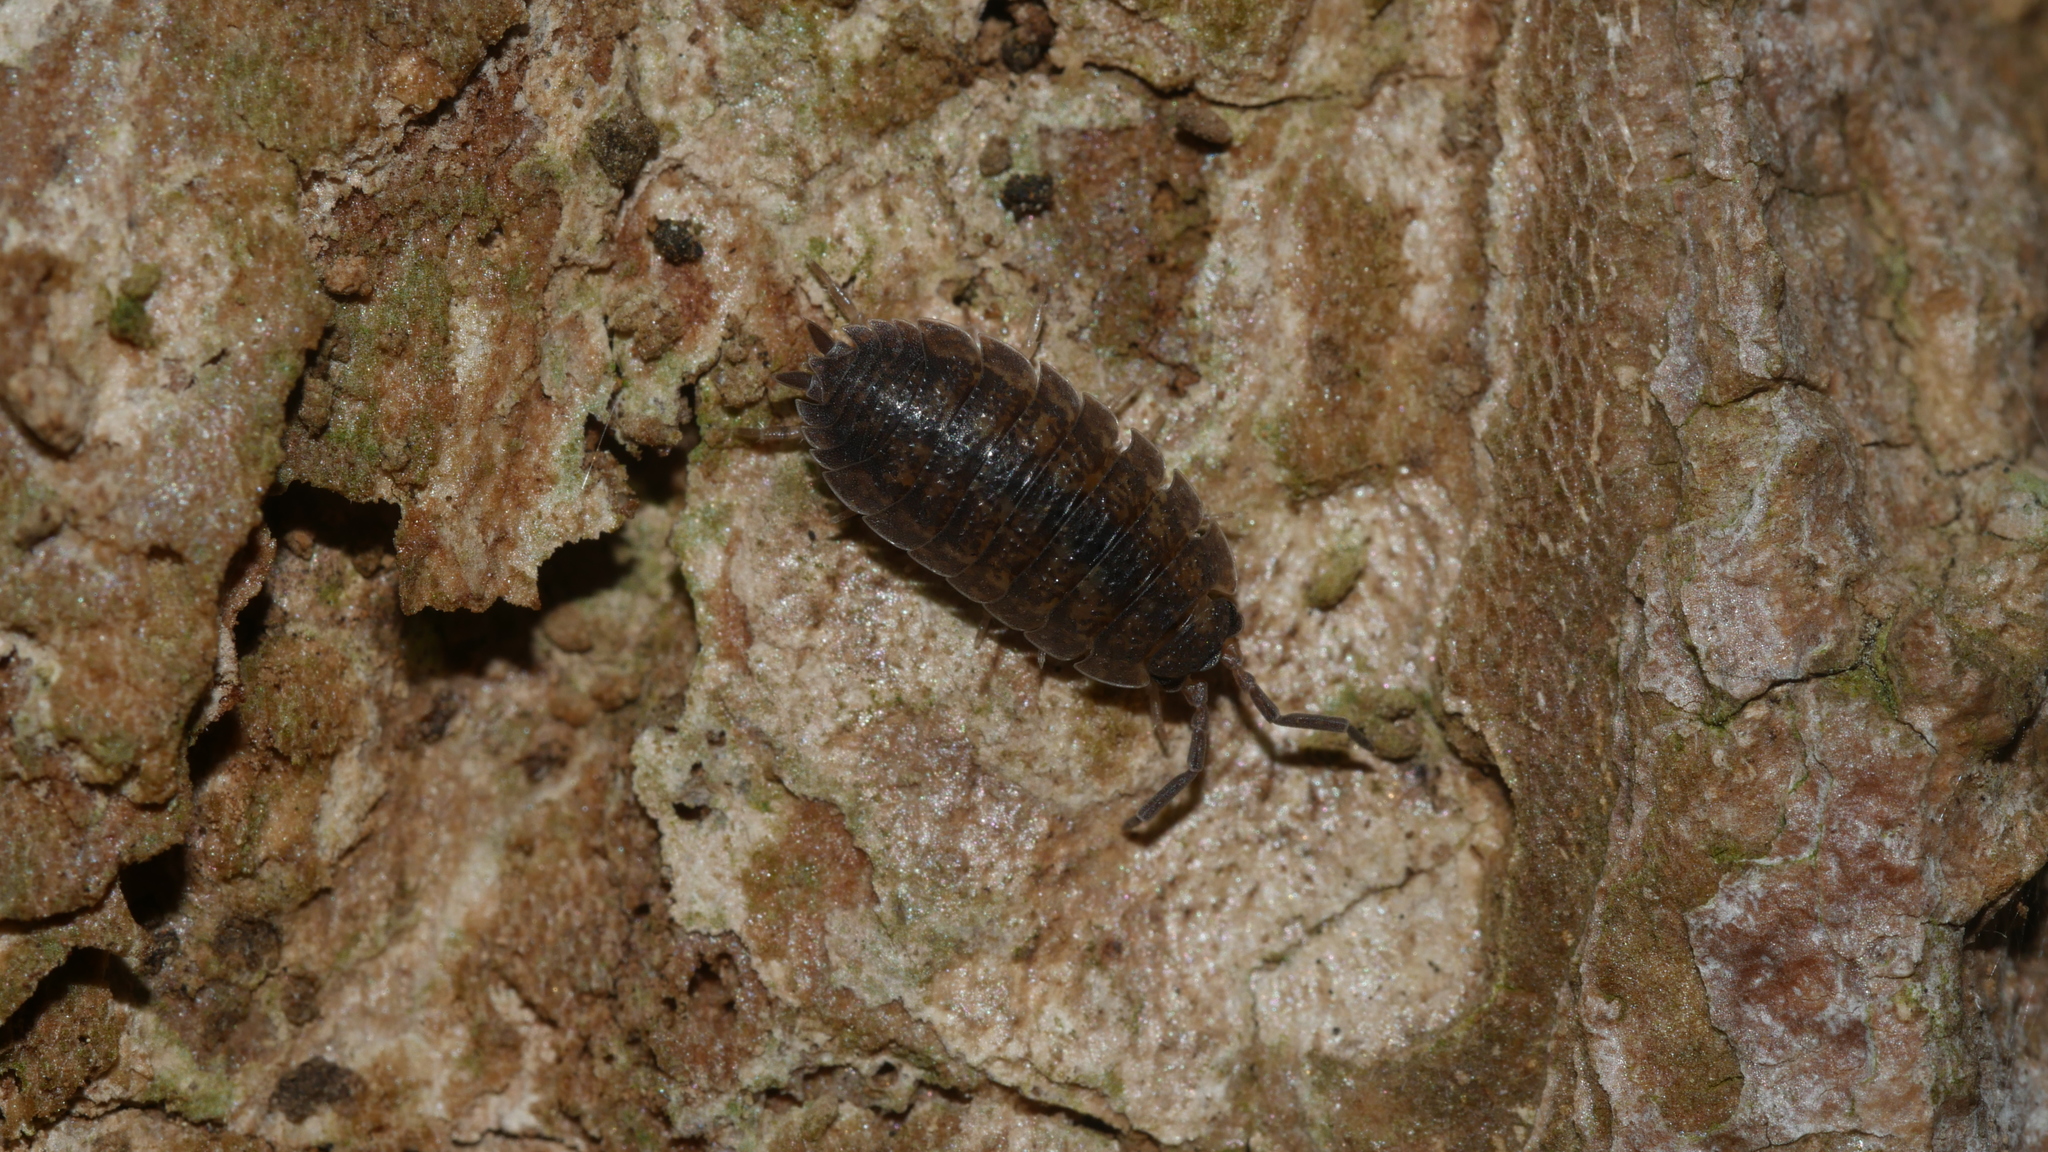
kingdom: Animalia
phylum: Arthropoda
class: Malacostraca
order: Isopoda
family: Porcellionidae
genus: Porcellio
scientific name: Porcellio scaber
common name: Common rough woodlouse
